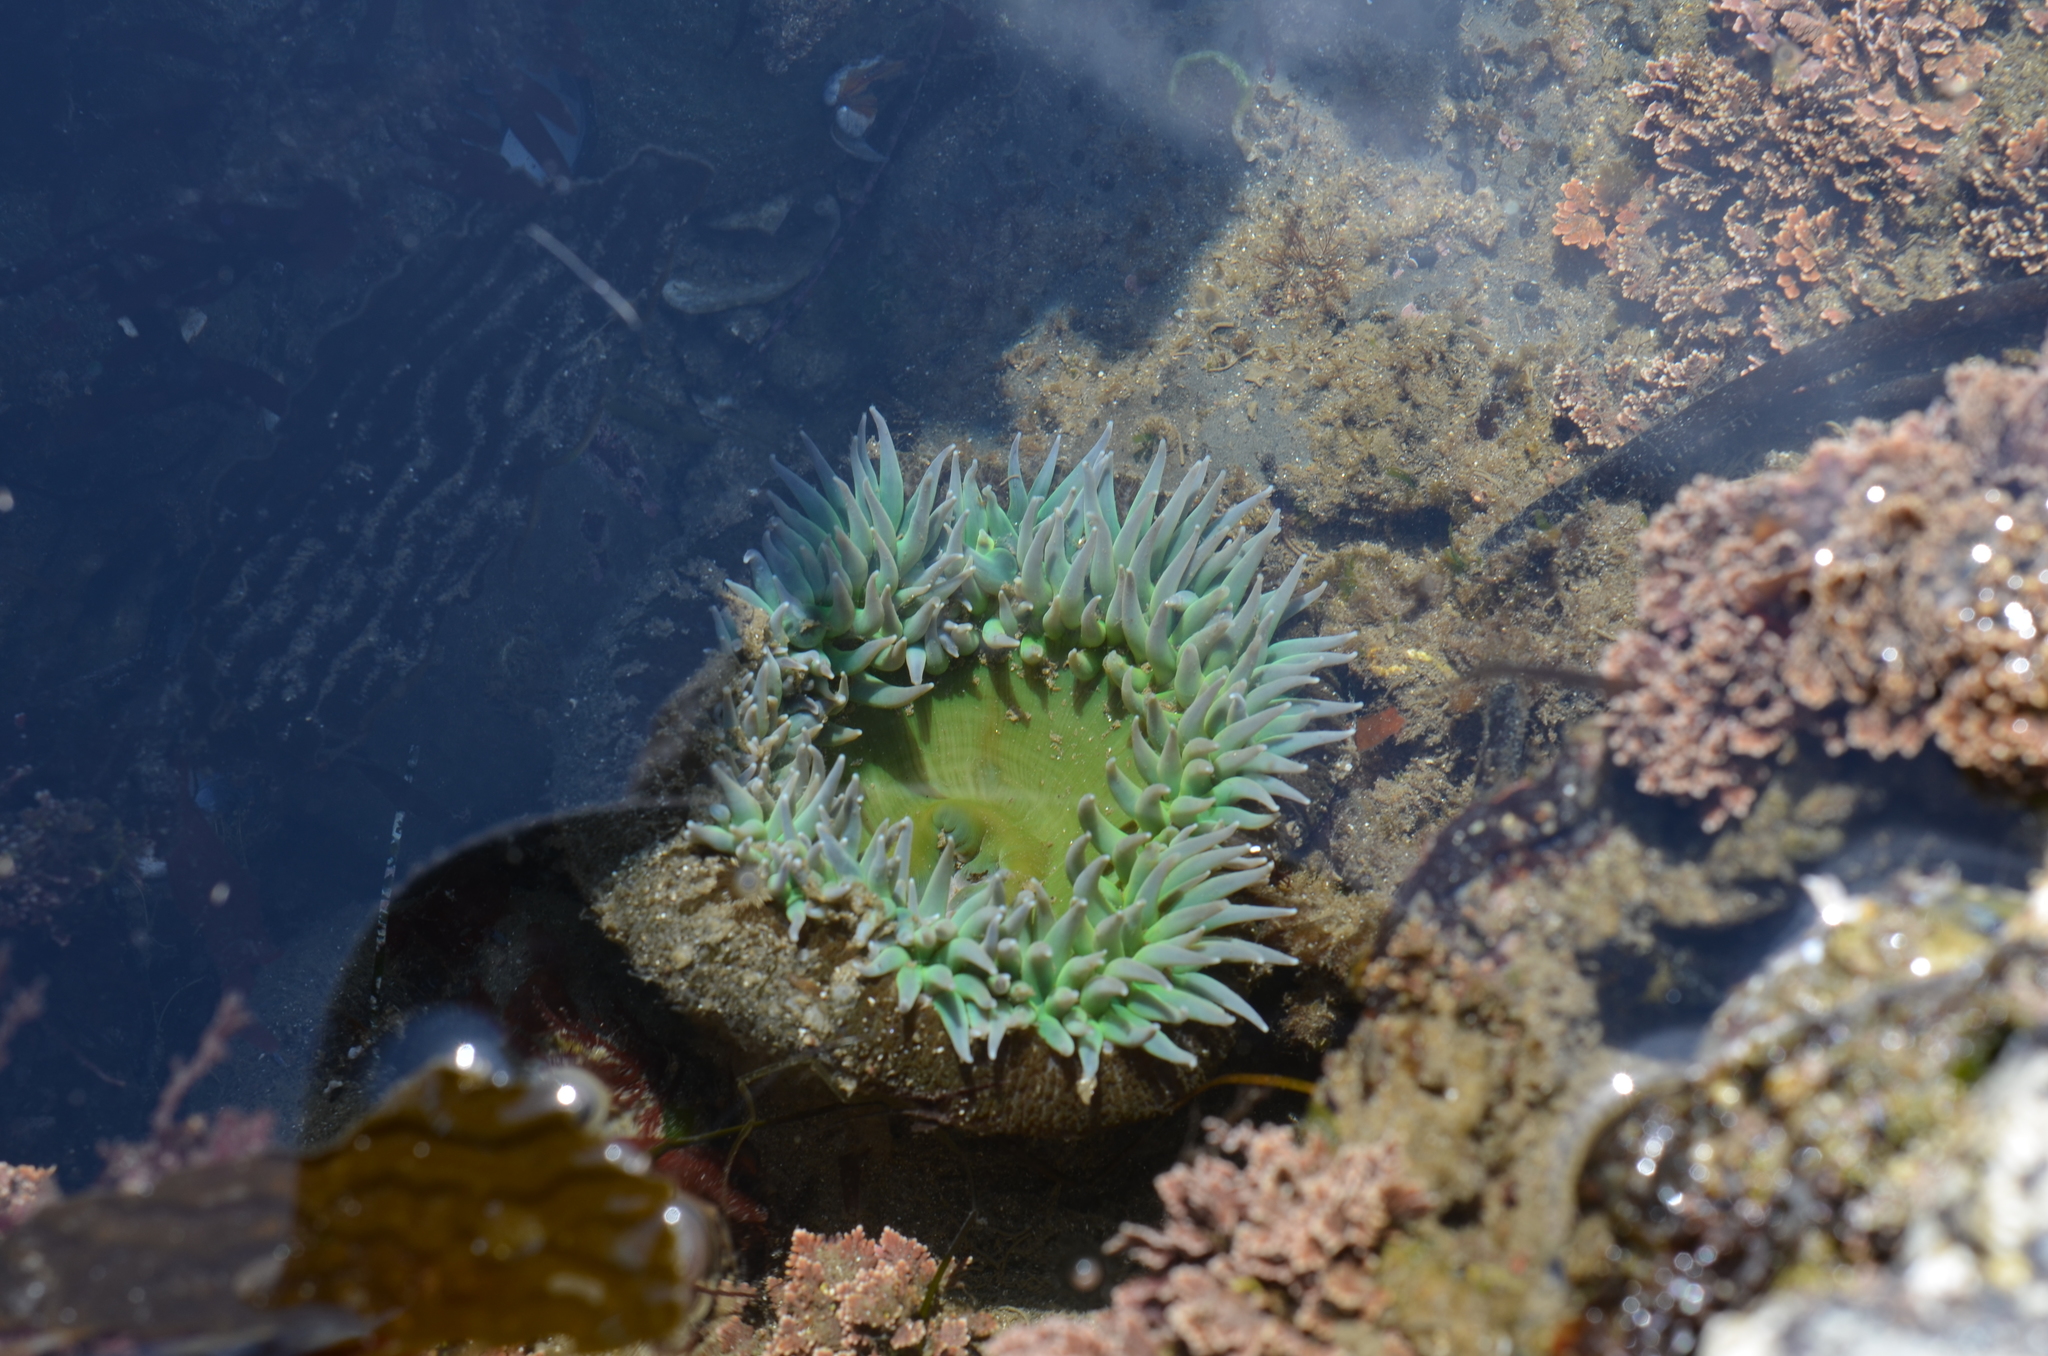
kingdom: Animalia
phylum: Cnidaria
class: Anthozoa
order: Actiniaria
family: Actiniidae
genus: Anthopleura
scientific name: Anthopleura xanthogrammica
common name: Giant green anemone
